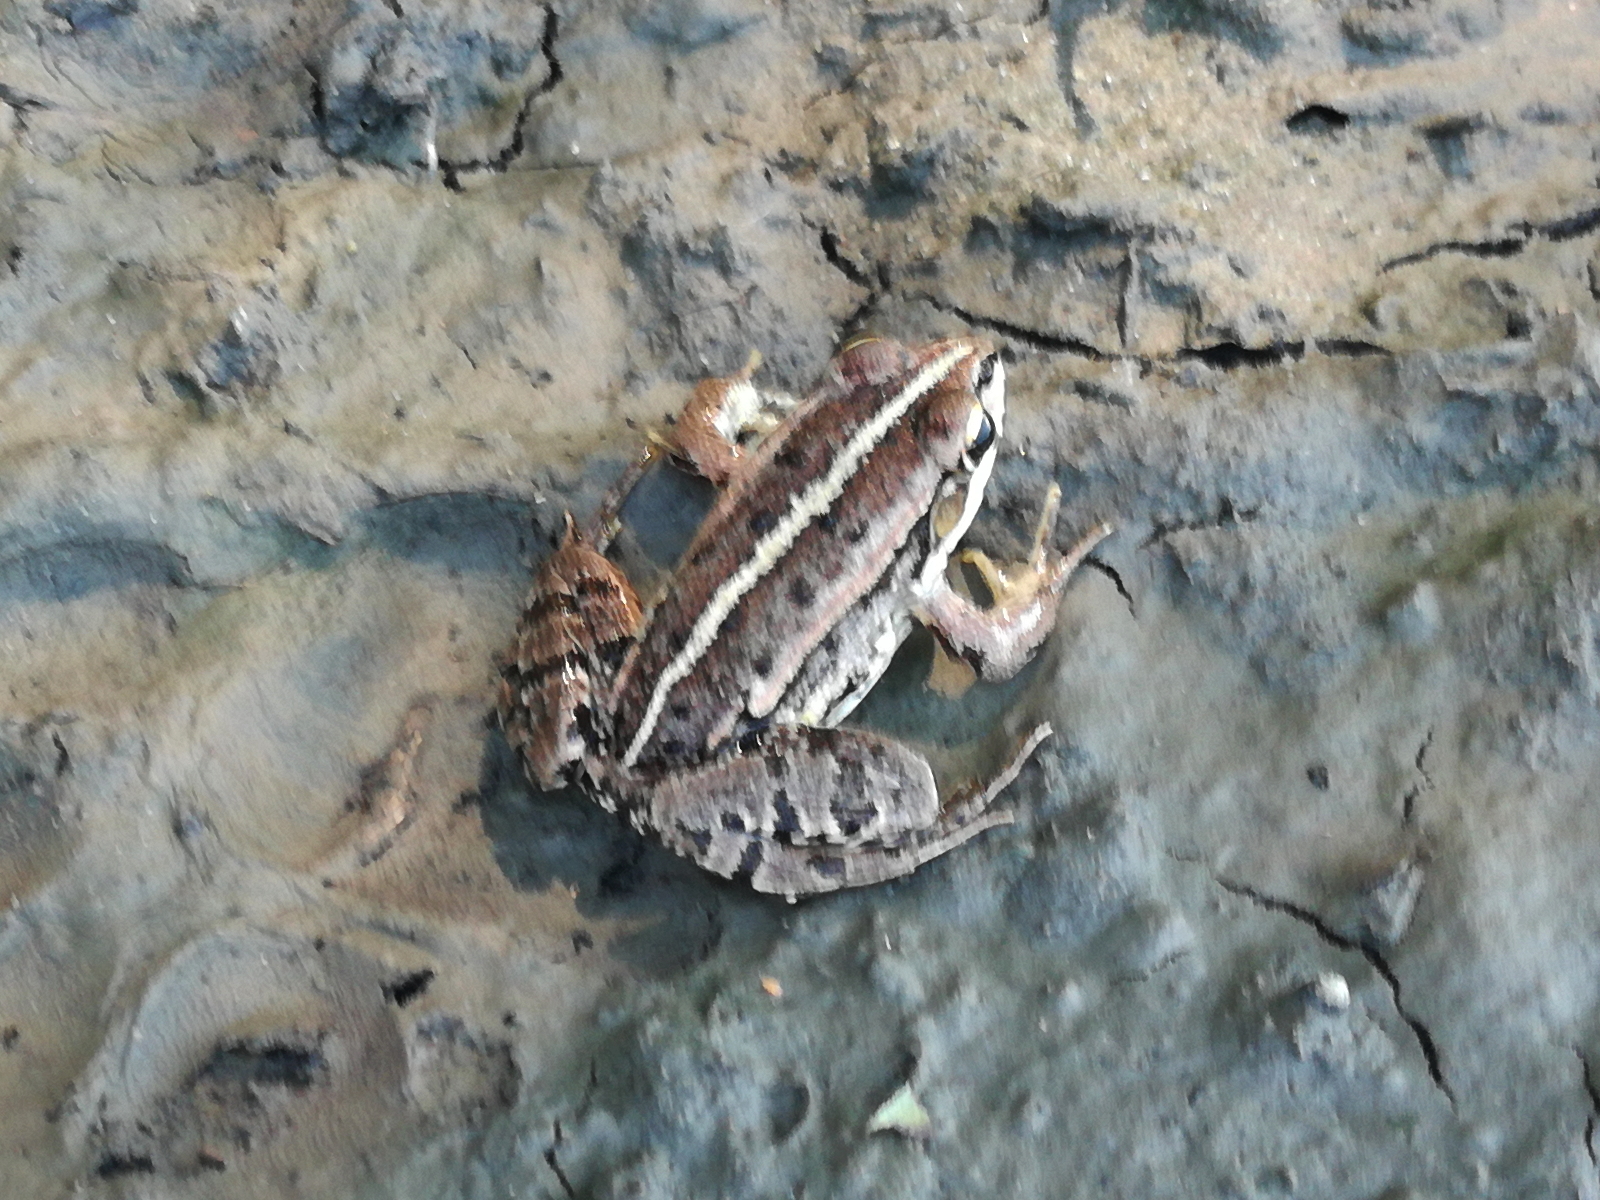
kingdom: Animalia
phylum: Chordata
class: Amphibia
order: Anura
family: Ranidae
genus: Pelophylax
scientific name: Pelophylax
